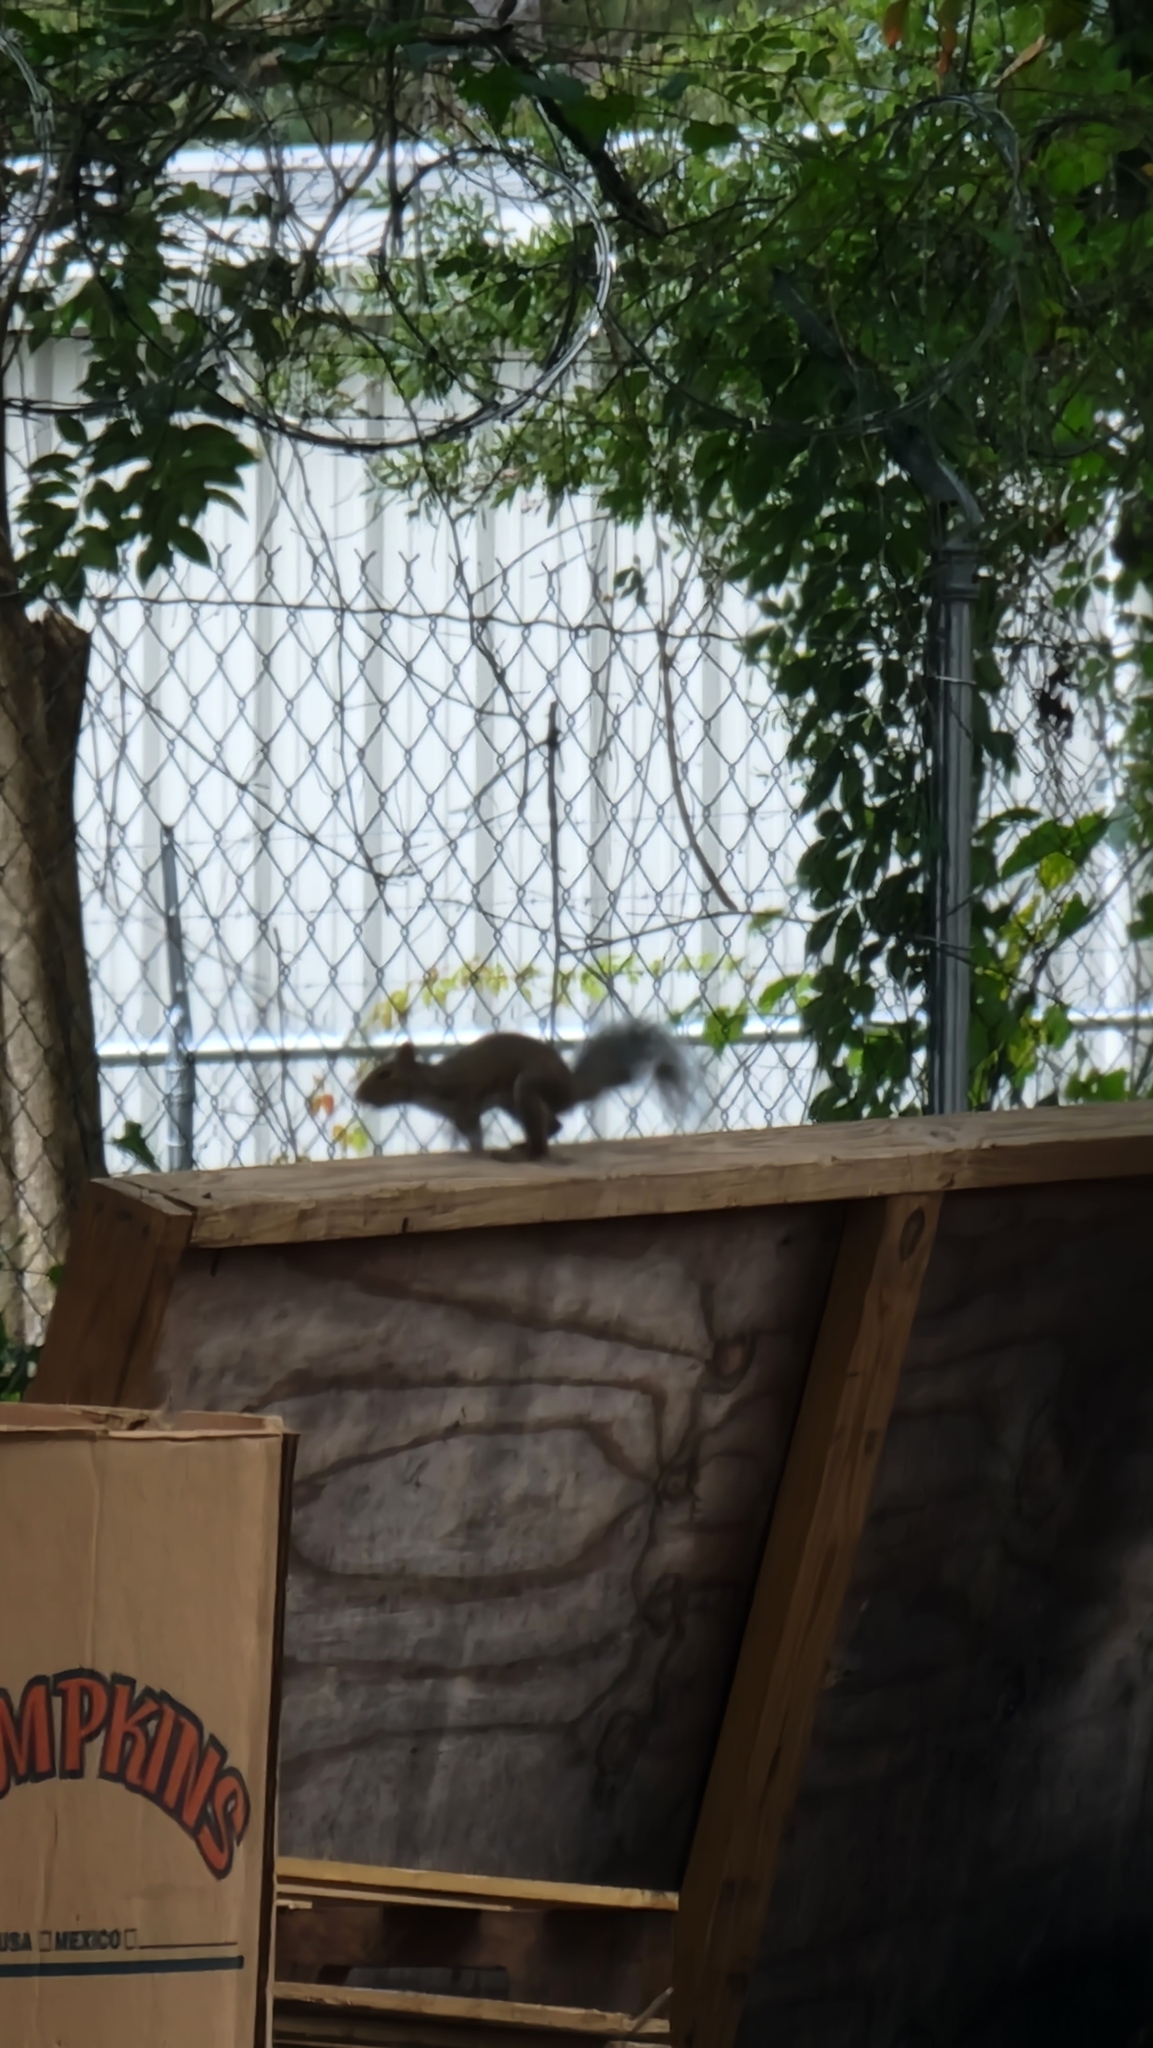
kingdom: Animalia
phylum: Chordata
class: Mammalia
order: Rodentia
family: Sciuridae
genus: Sciurus
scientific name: Sciurus carolinensis
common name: Eastern gray squirrel
